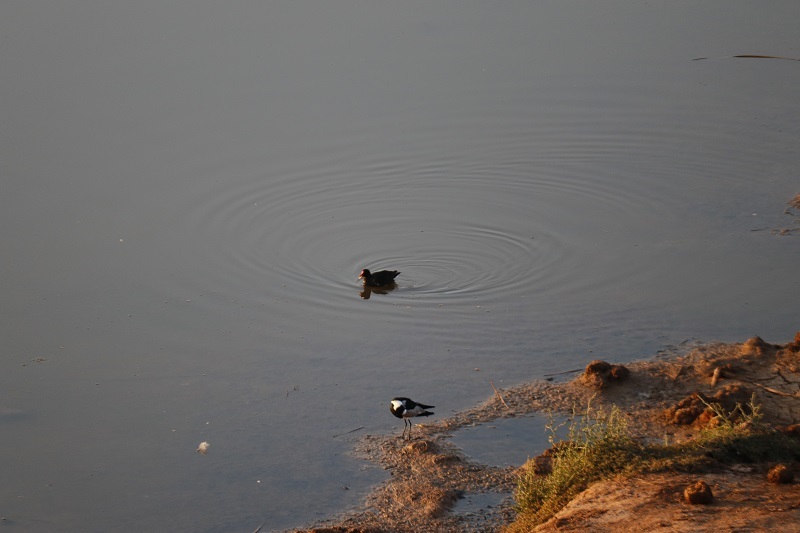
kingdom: Animalia
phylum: Chordata
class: Aves
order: Gruiformes
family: Rallidae
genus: Gallinula
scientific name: Gallinula chloropus
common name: Common moorhen
